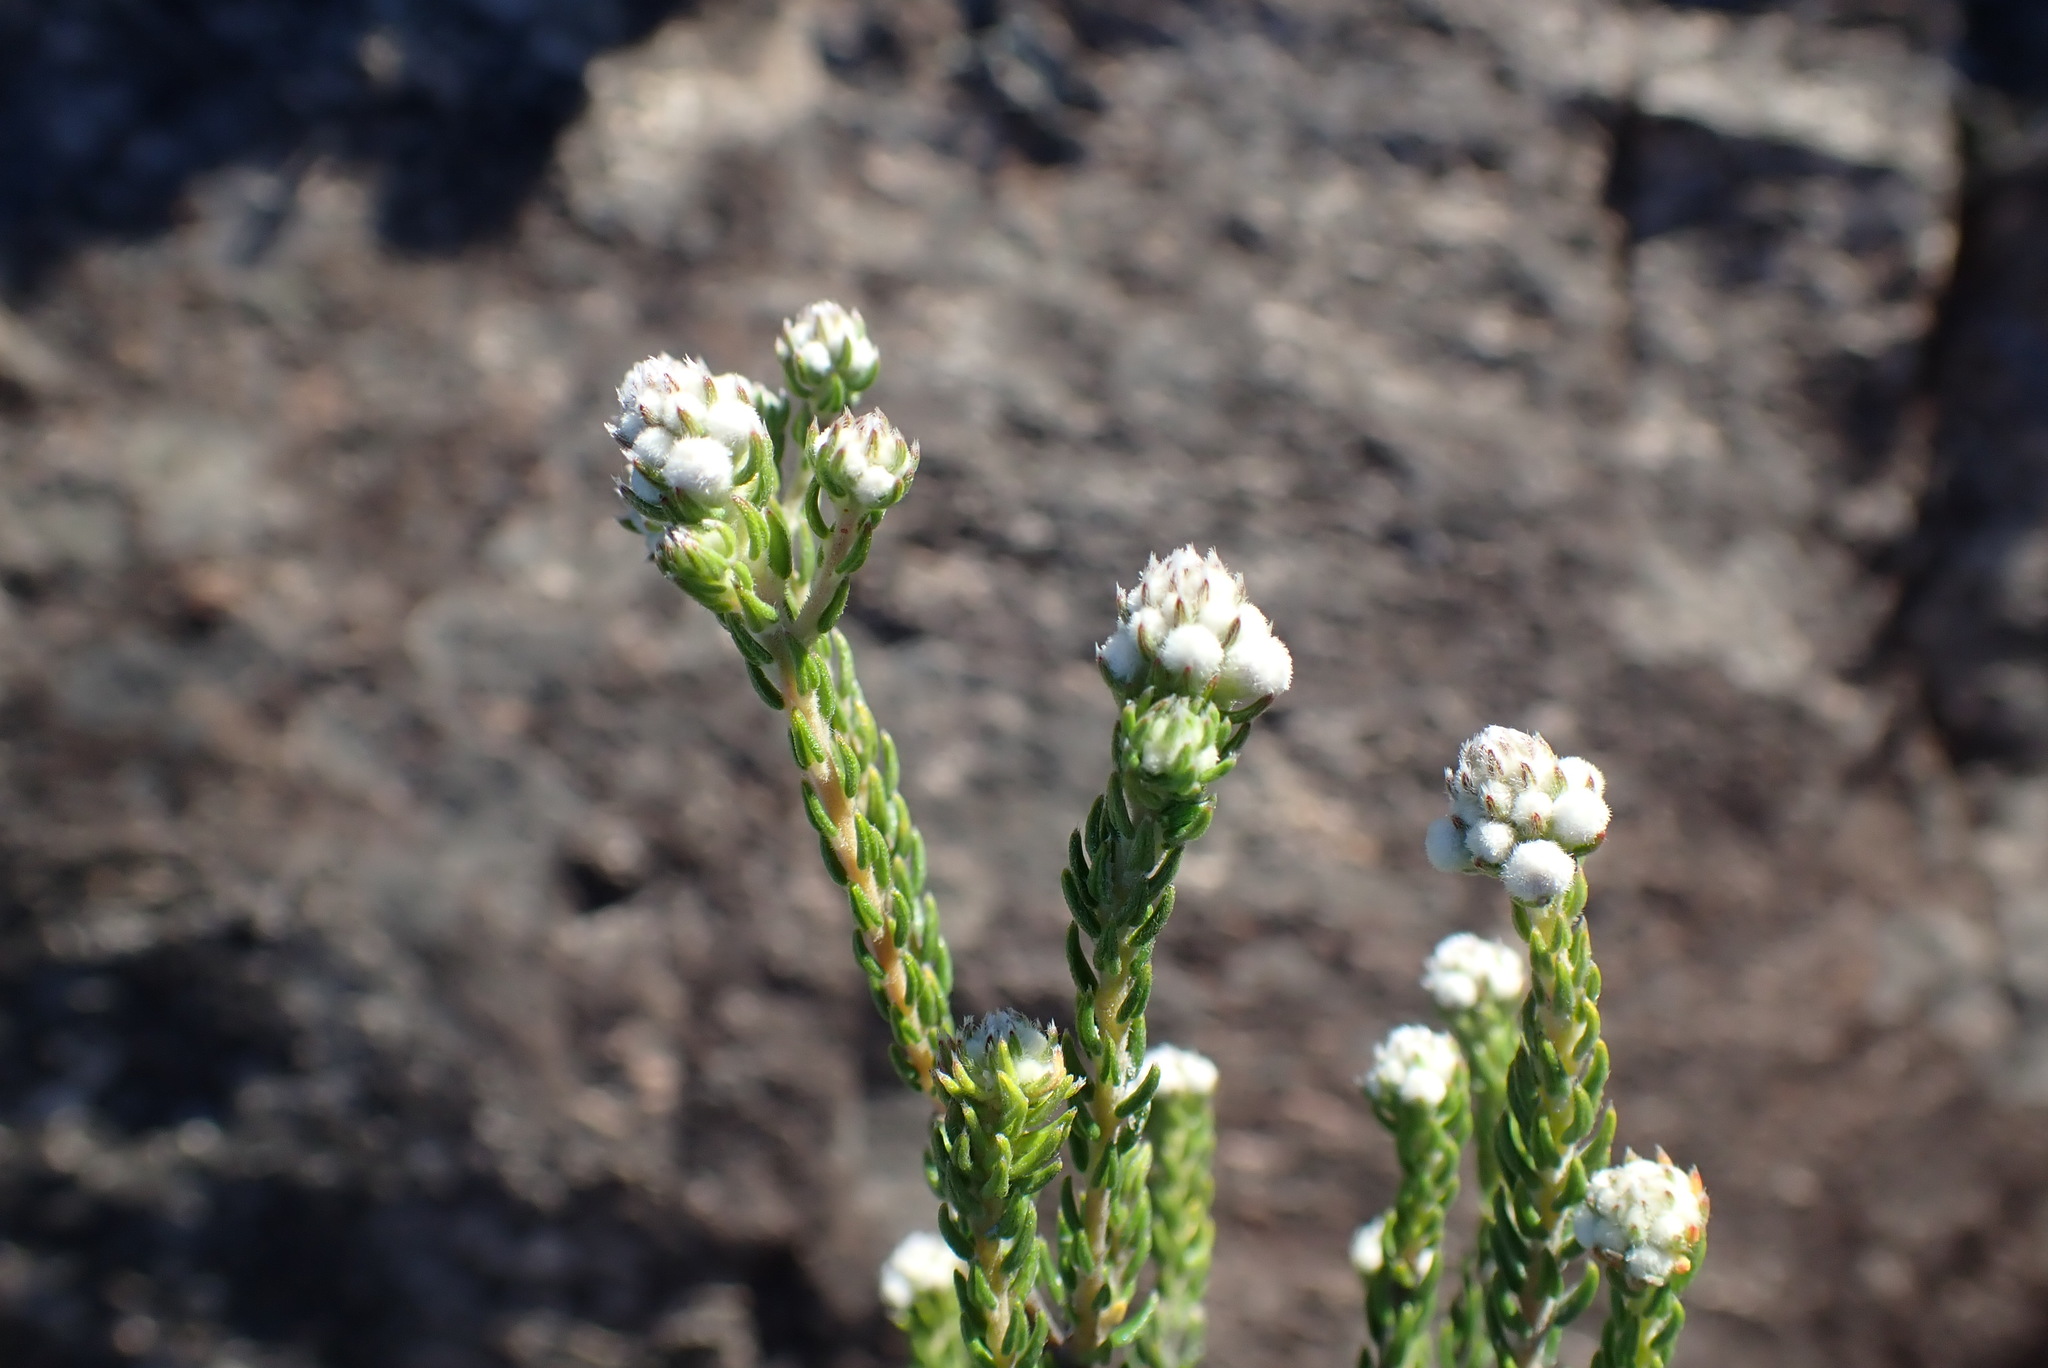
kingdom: Plantae
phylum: Tracheophyta
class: Magnoliopsida
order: Rosales
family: Rhamnaceae
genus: Phylica
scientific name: Phylica purpurea
